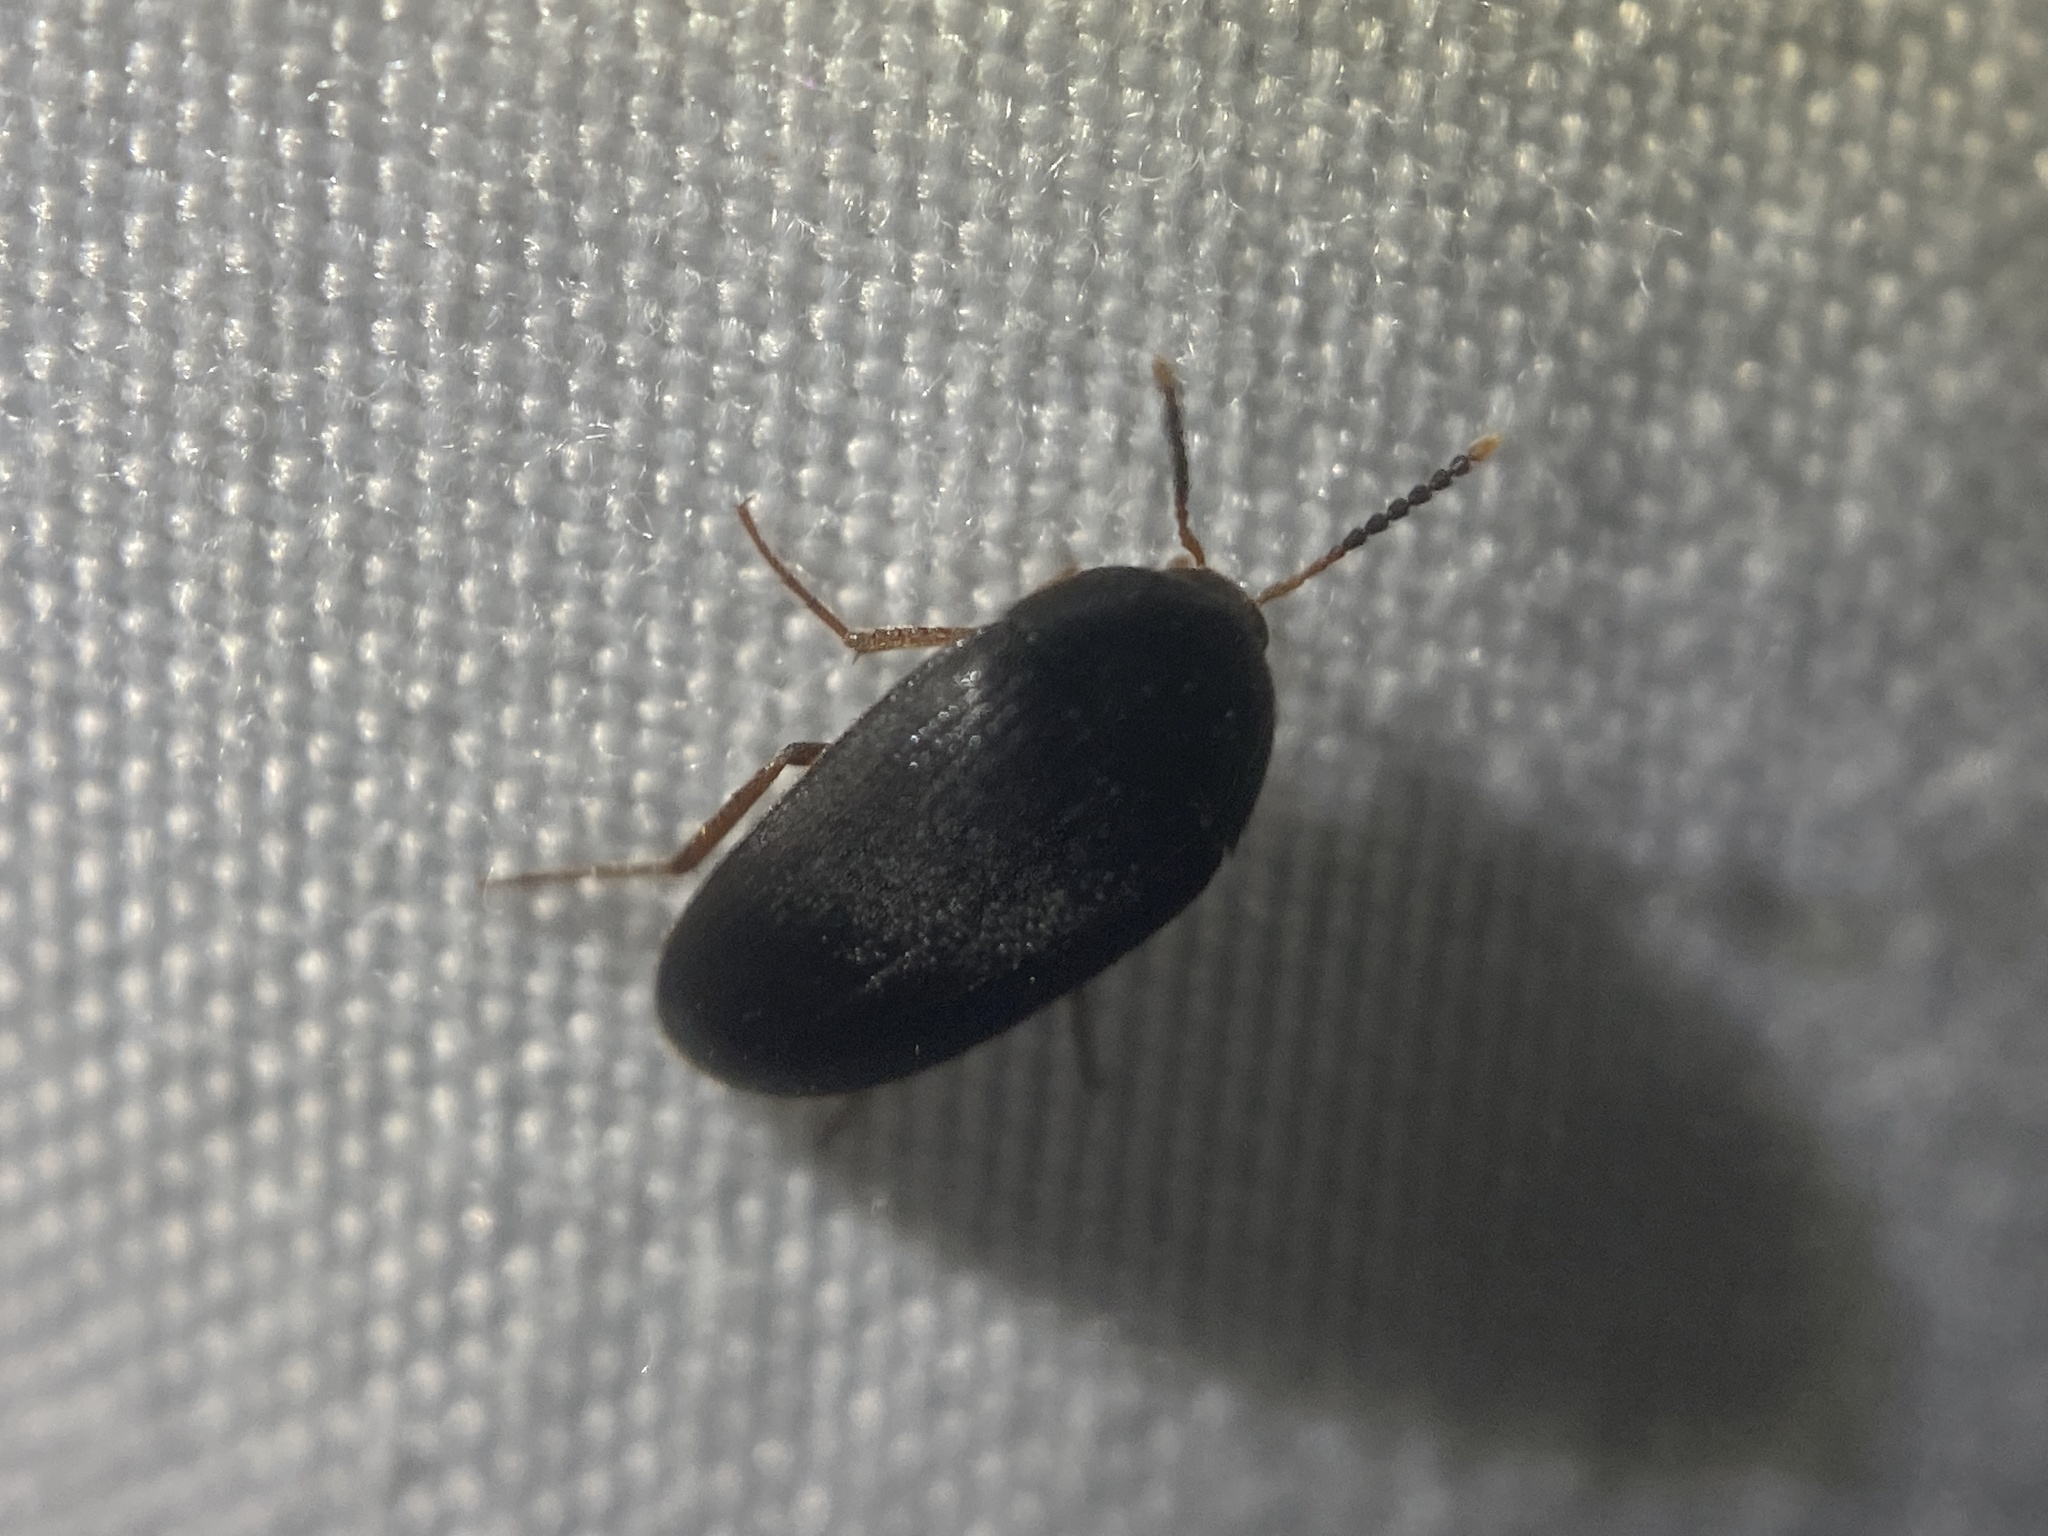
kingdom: Animalia
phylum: Arthropoda
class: Insecta
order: Coleoptera
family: Tetratomidae
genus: Eustrophopsis
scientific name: Eustrophopsis bicolor
